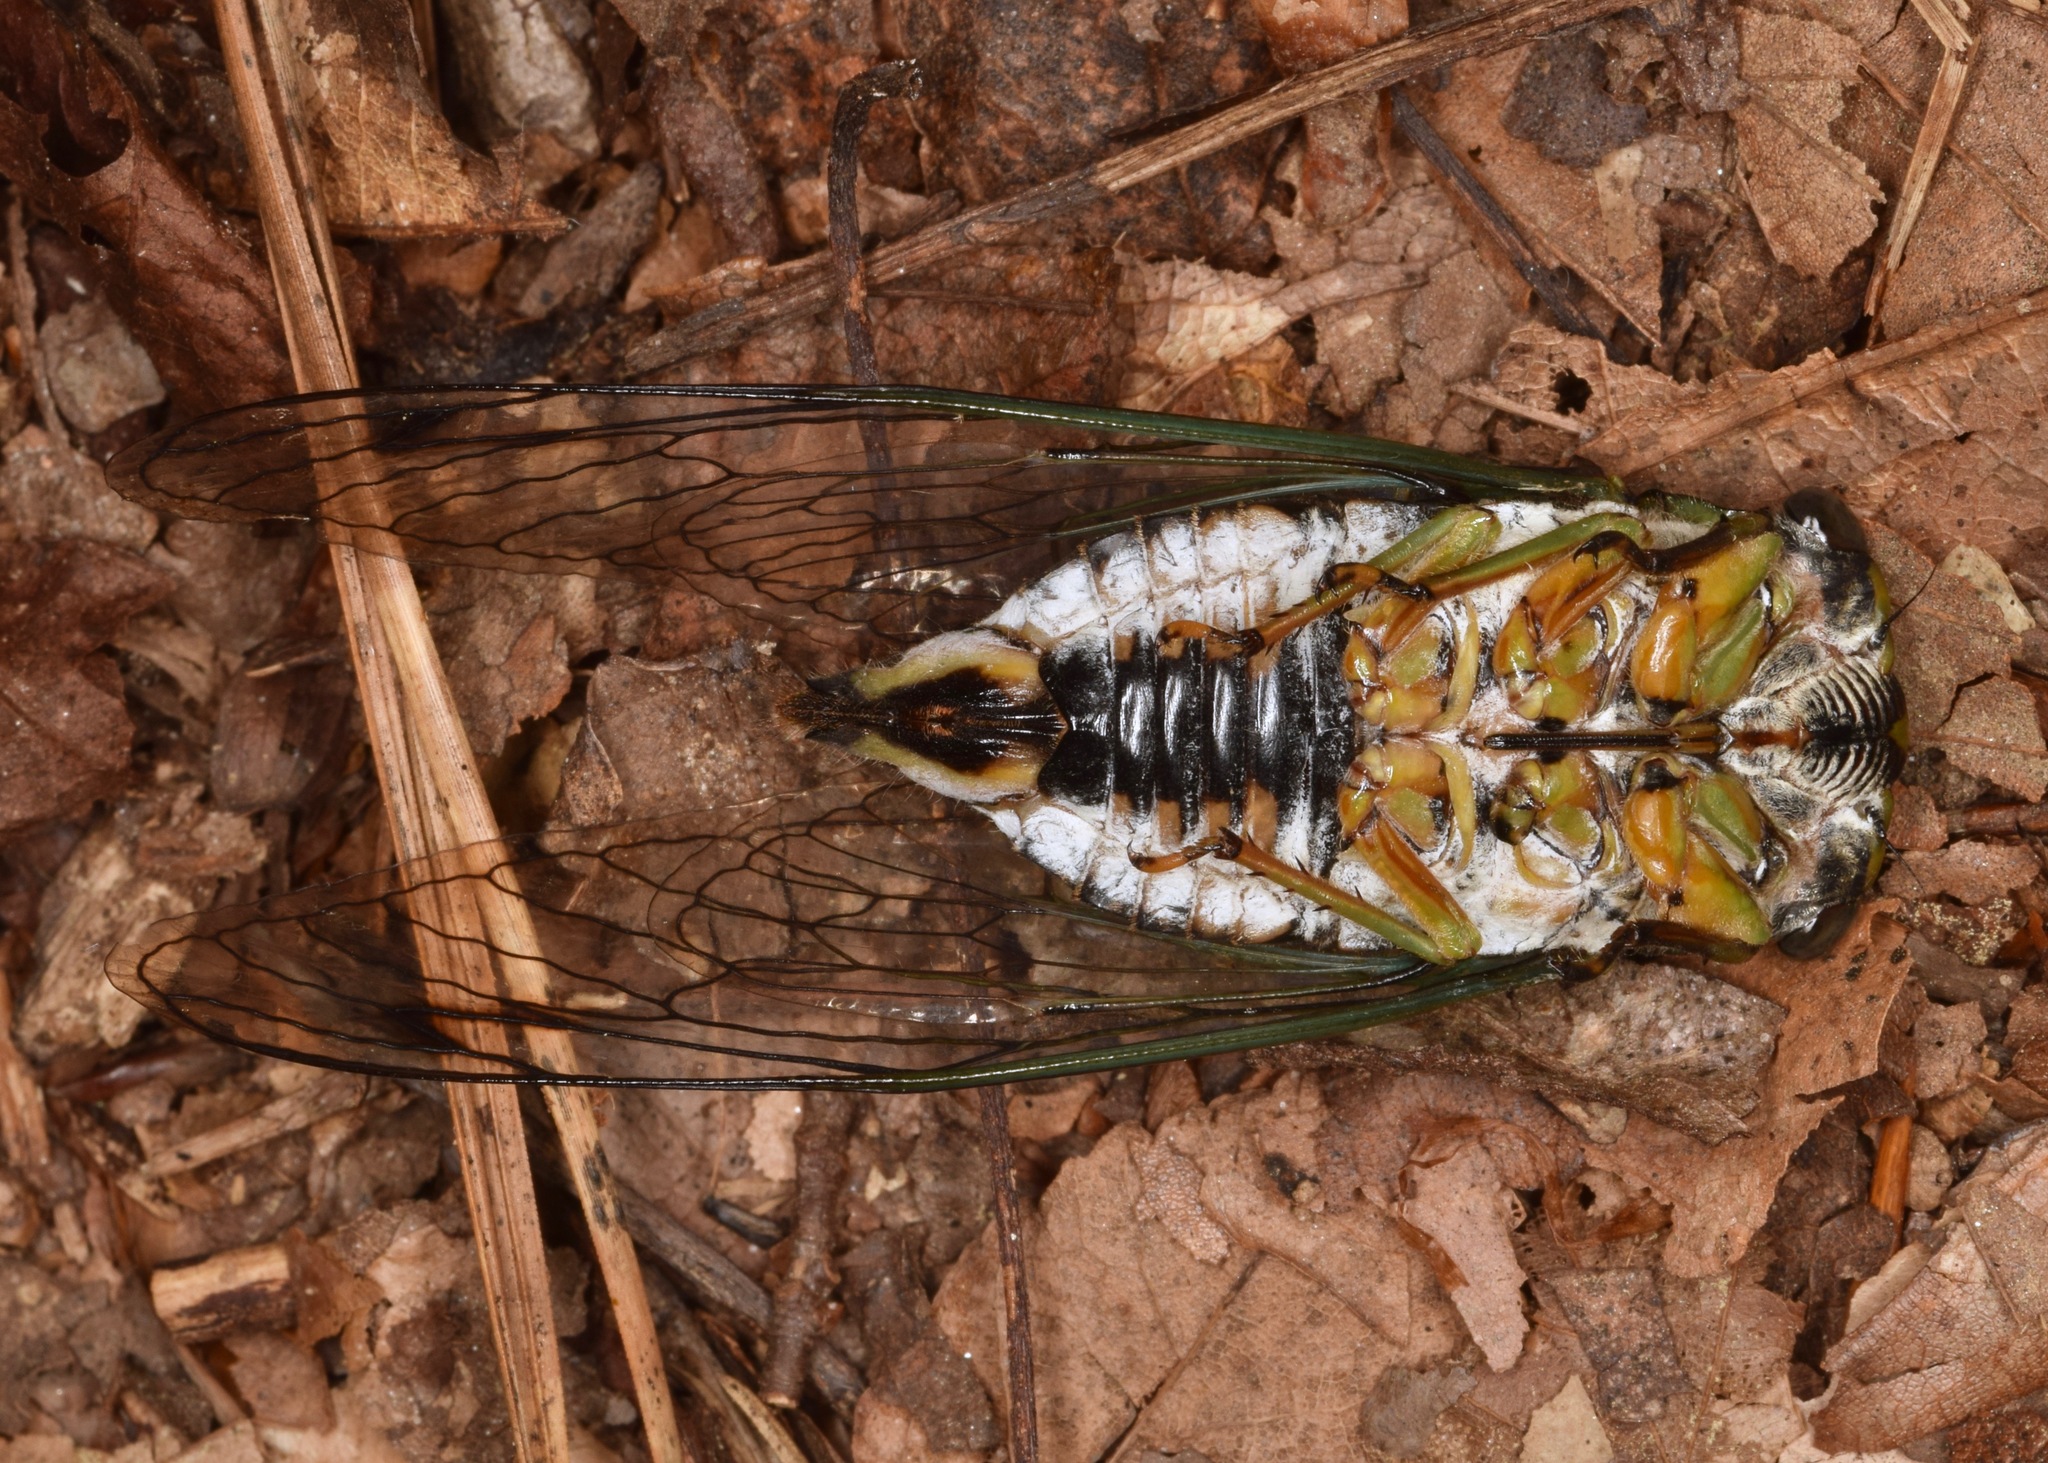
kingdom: Animalia
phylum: Arthropoda
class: Insecta
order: Hemiptera
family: Cicadidae
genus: Neotibicen
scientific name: Neotibicen linnei
